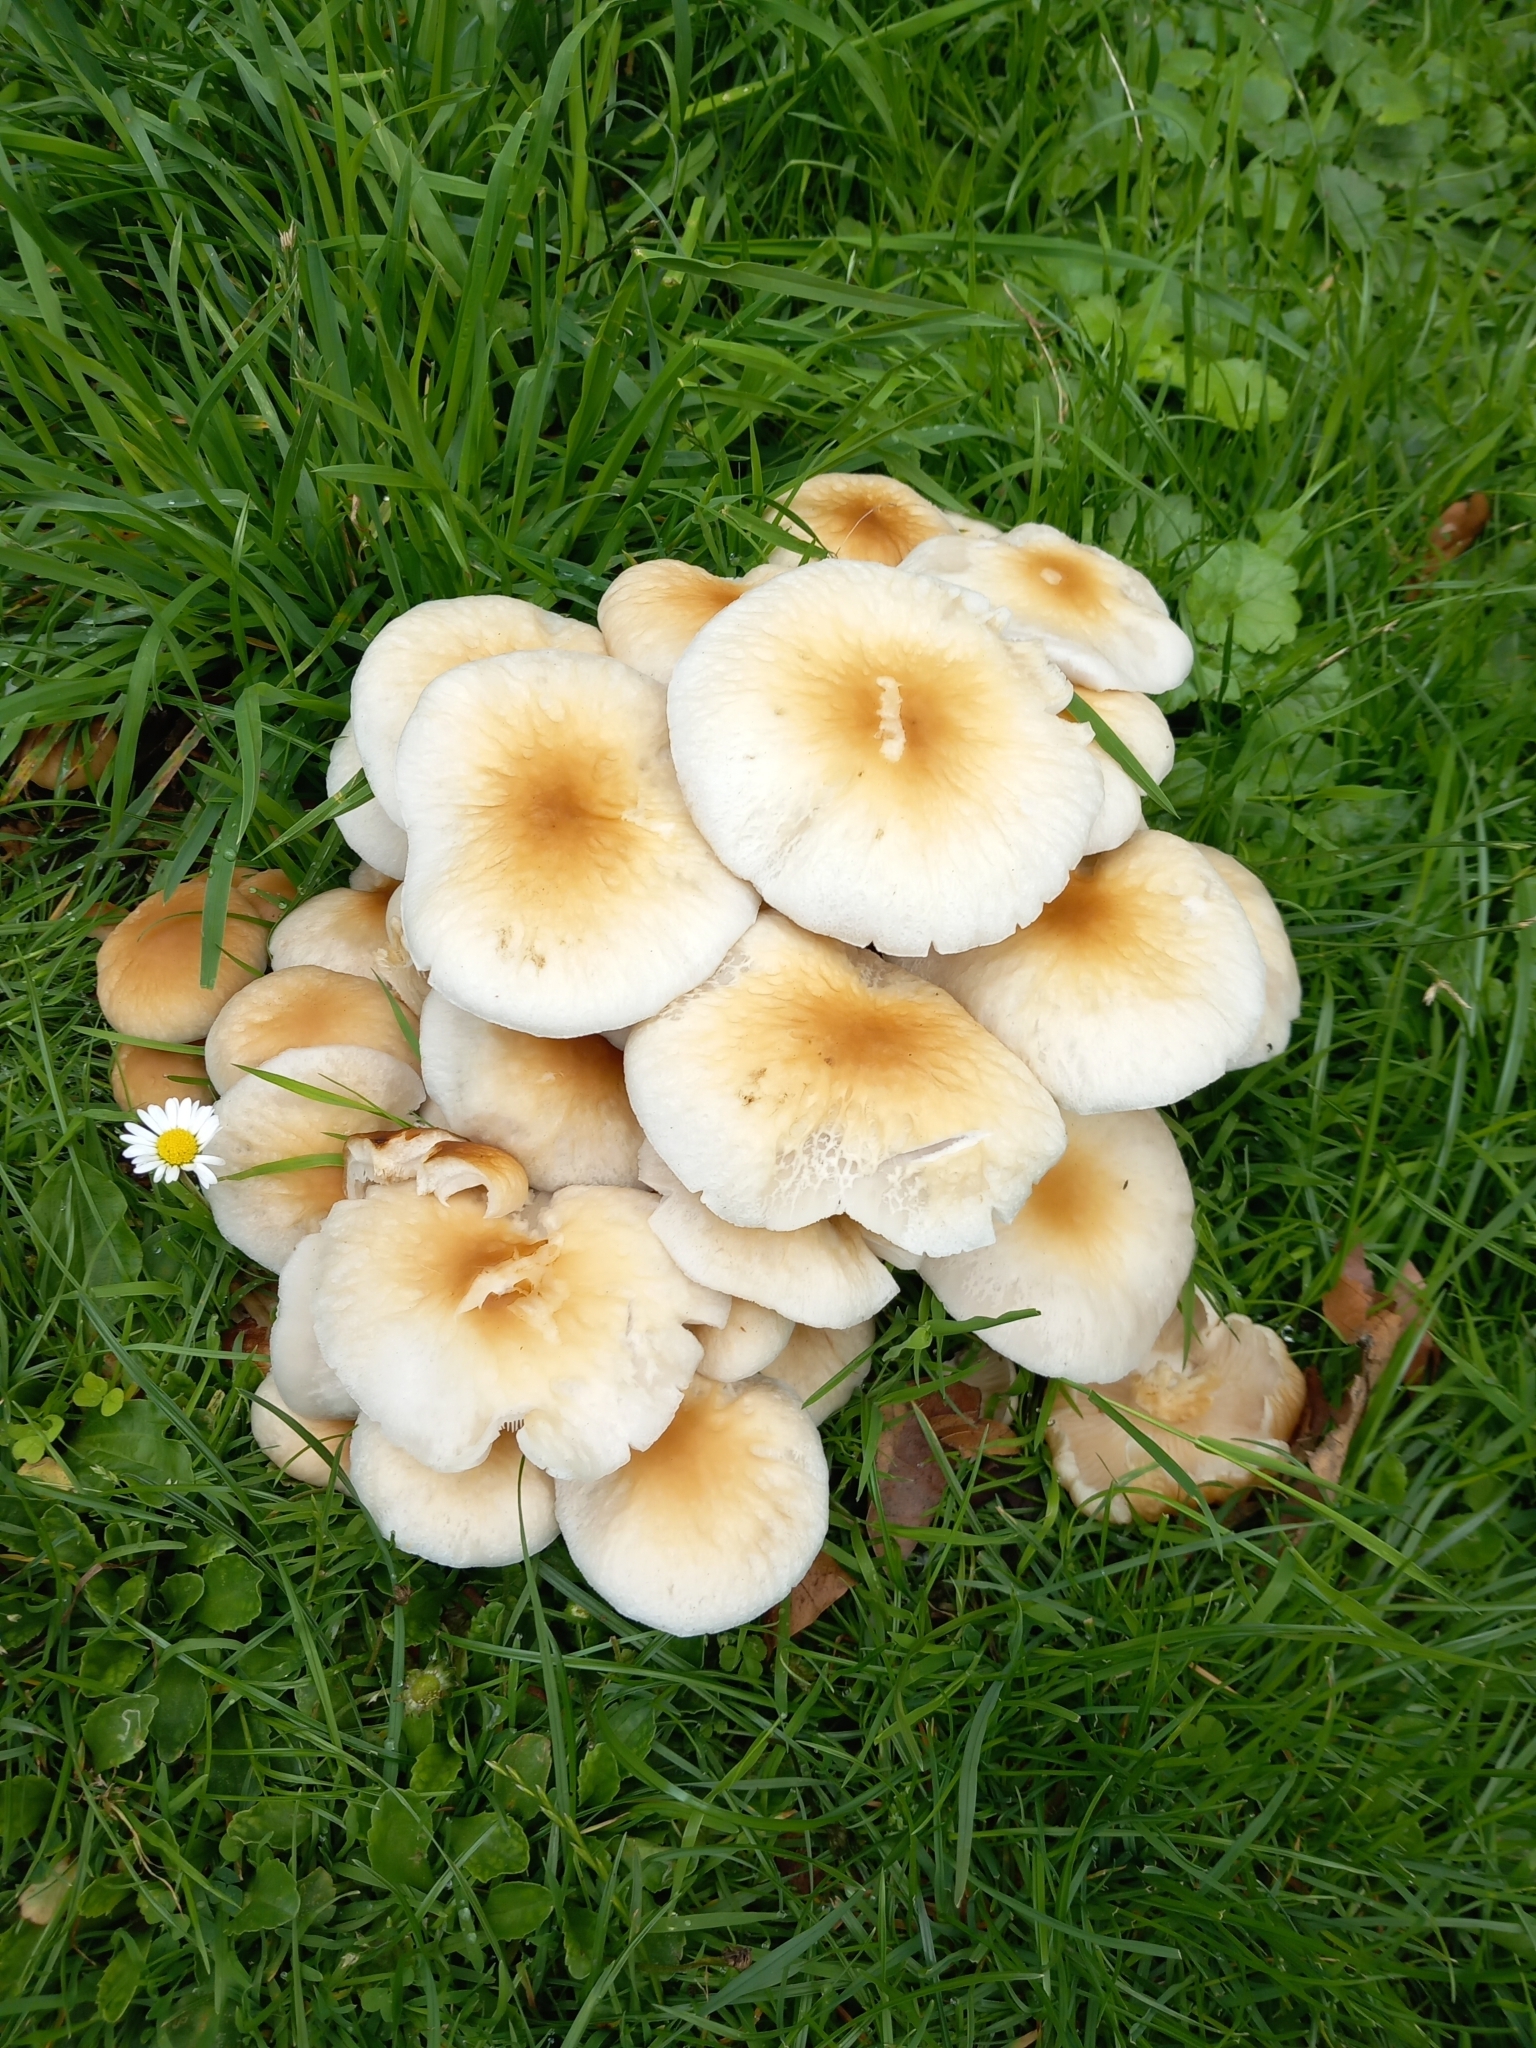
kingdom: Fungi
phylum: Basidiomycota
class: Agaricomycetes
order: Agaricales
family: Tubariaceae
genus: Cyclocybe
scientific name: Cyclocybe cylindracea
